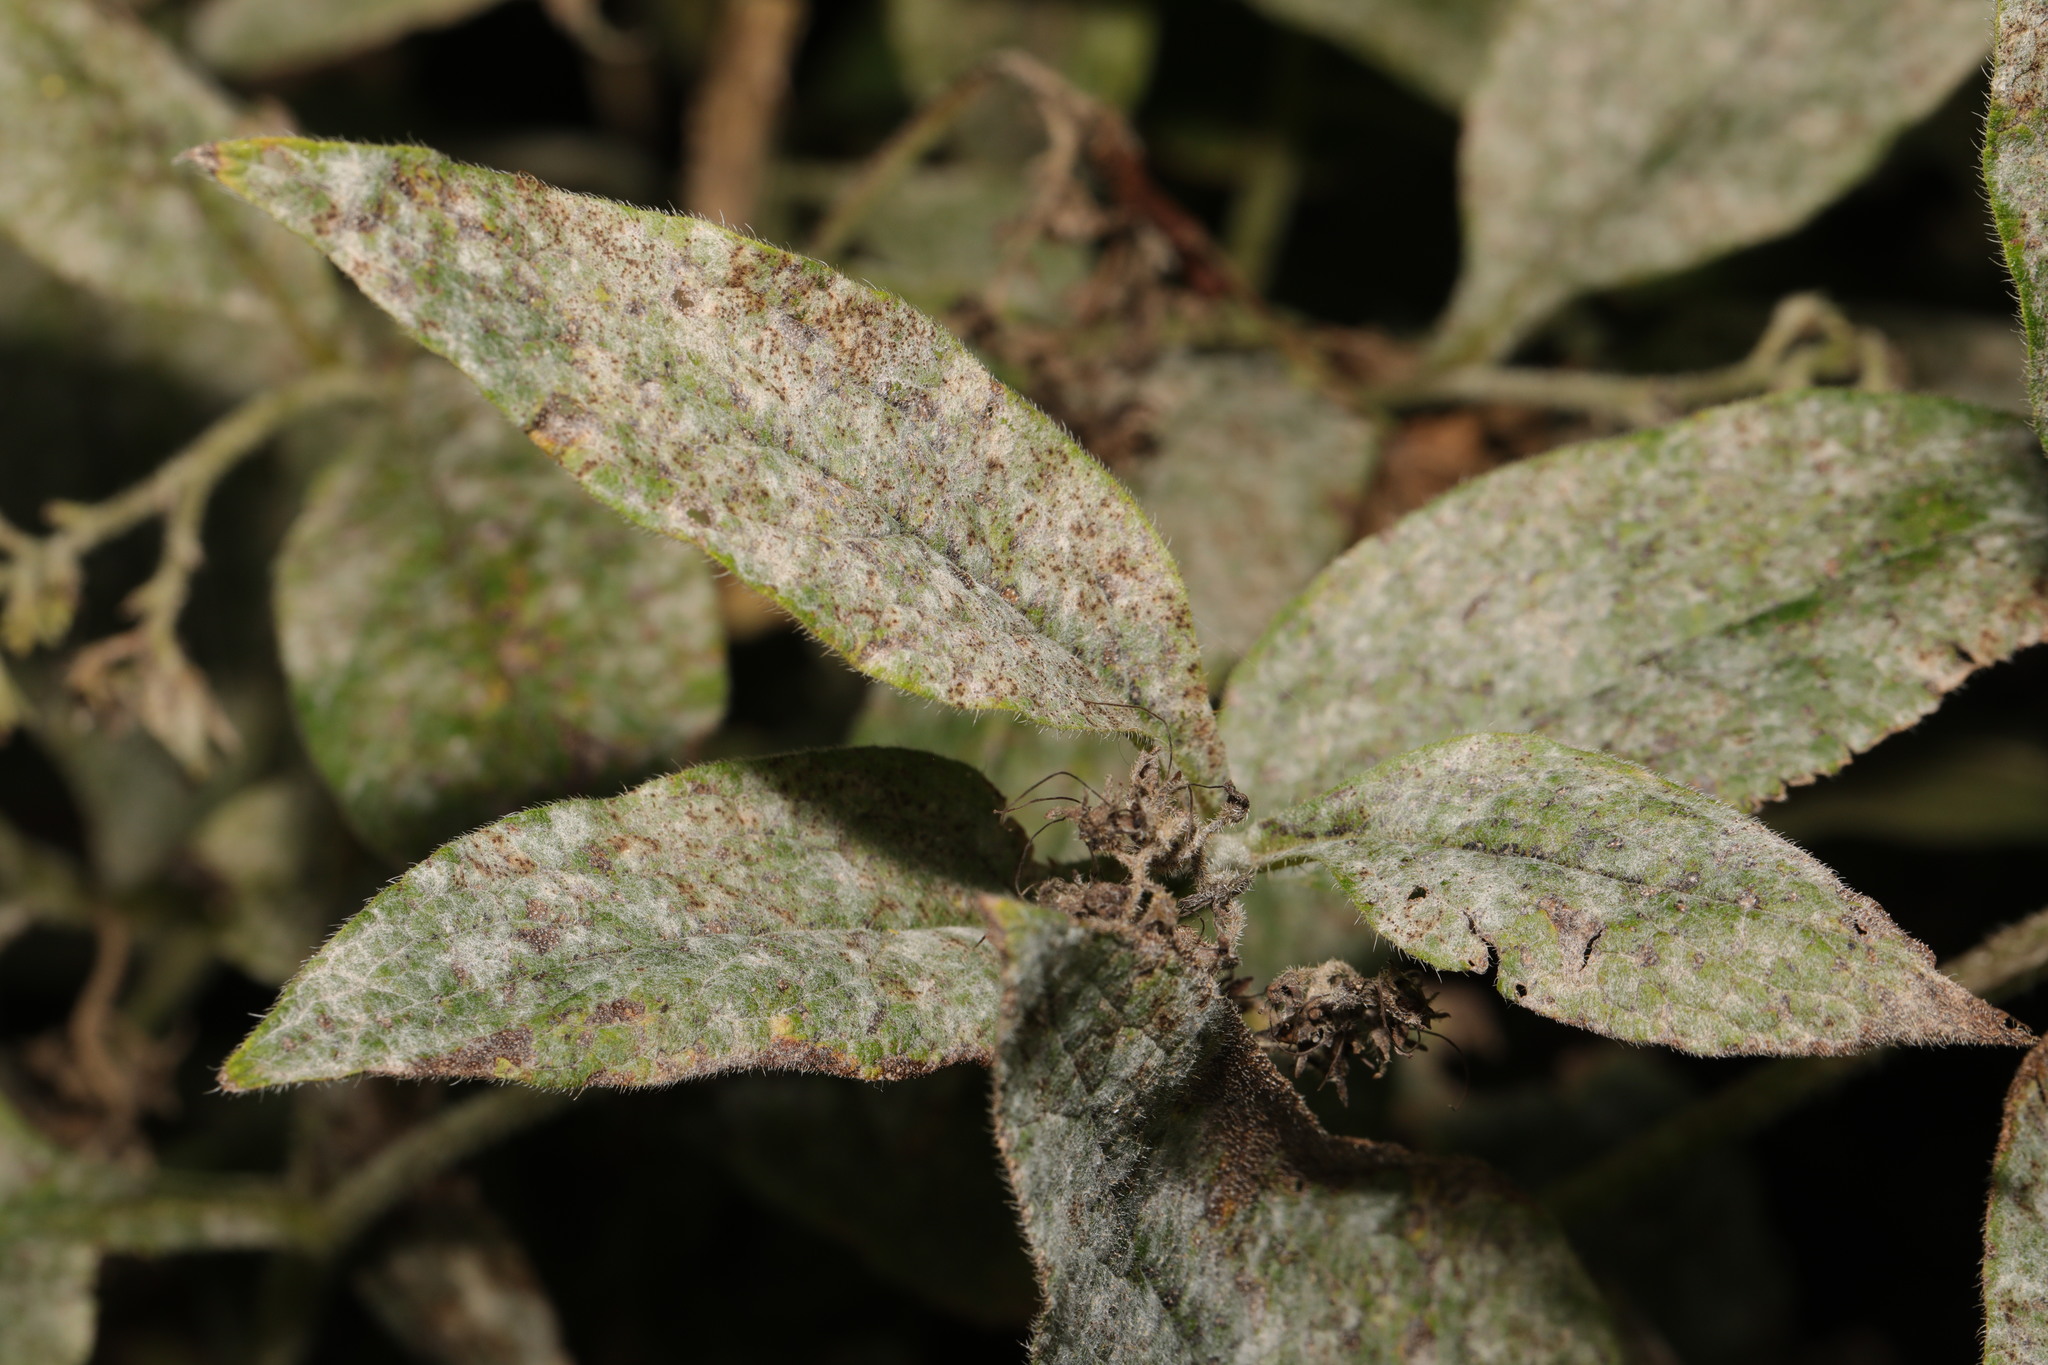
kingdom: Fungi
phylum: Ascomycota
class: Leotiomycetes
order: Helotiales
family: Erysiphaceae
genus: Golovinomyces
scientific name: Golovinomyces asperifoliorum
